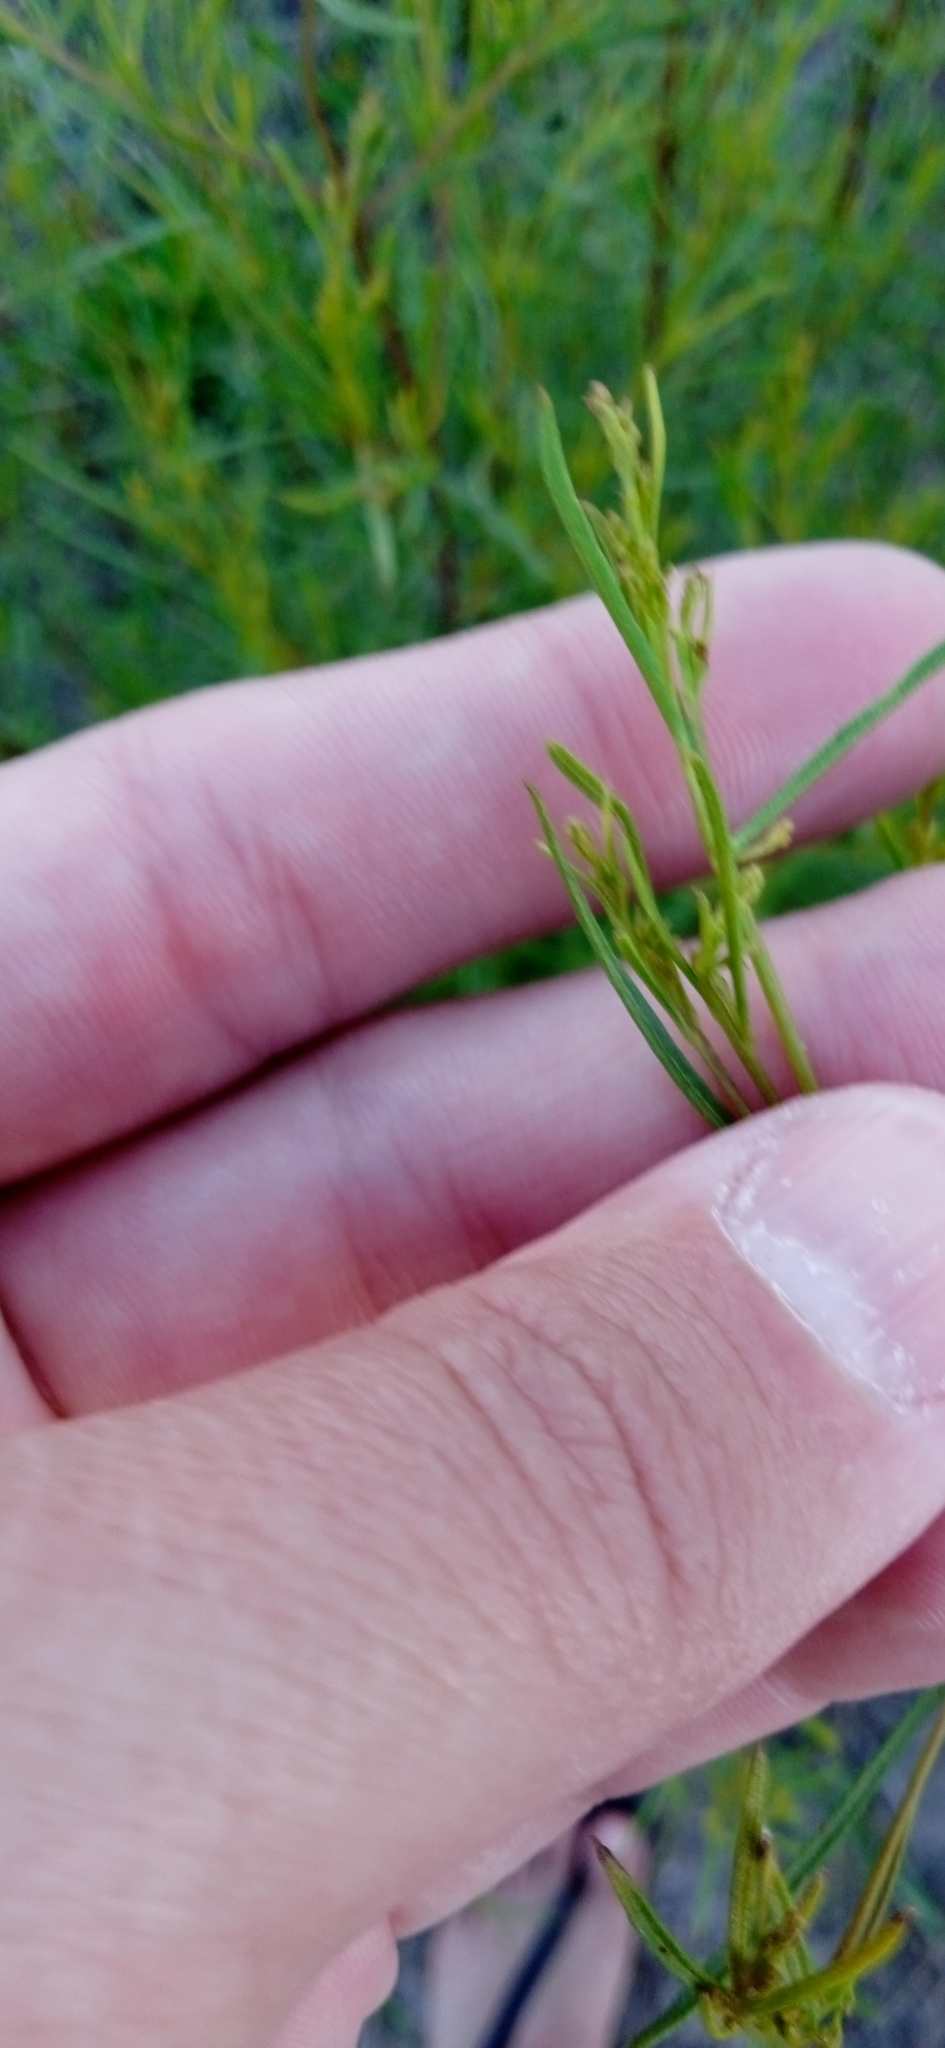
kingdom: Plantae
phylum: Tracheophyta
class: Magnoliopsida
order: Asterales
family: Asteraceae
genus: Acanthostyles
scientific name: Acanthostyles buniifolius
